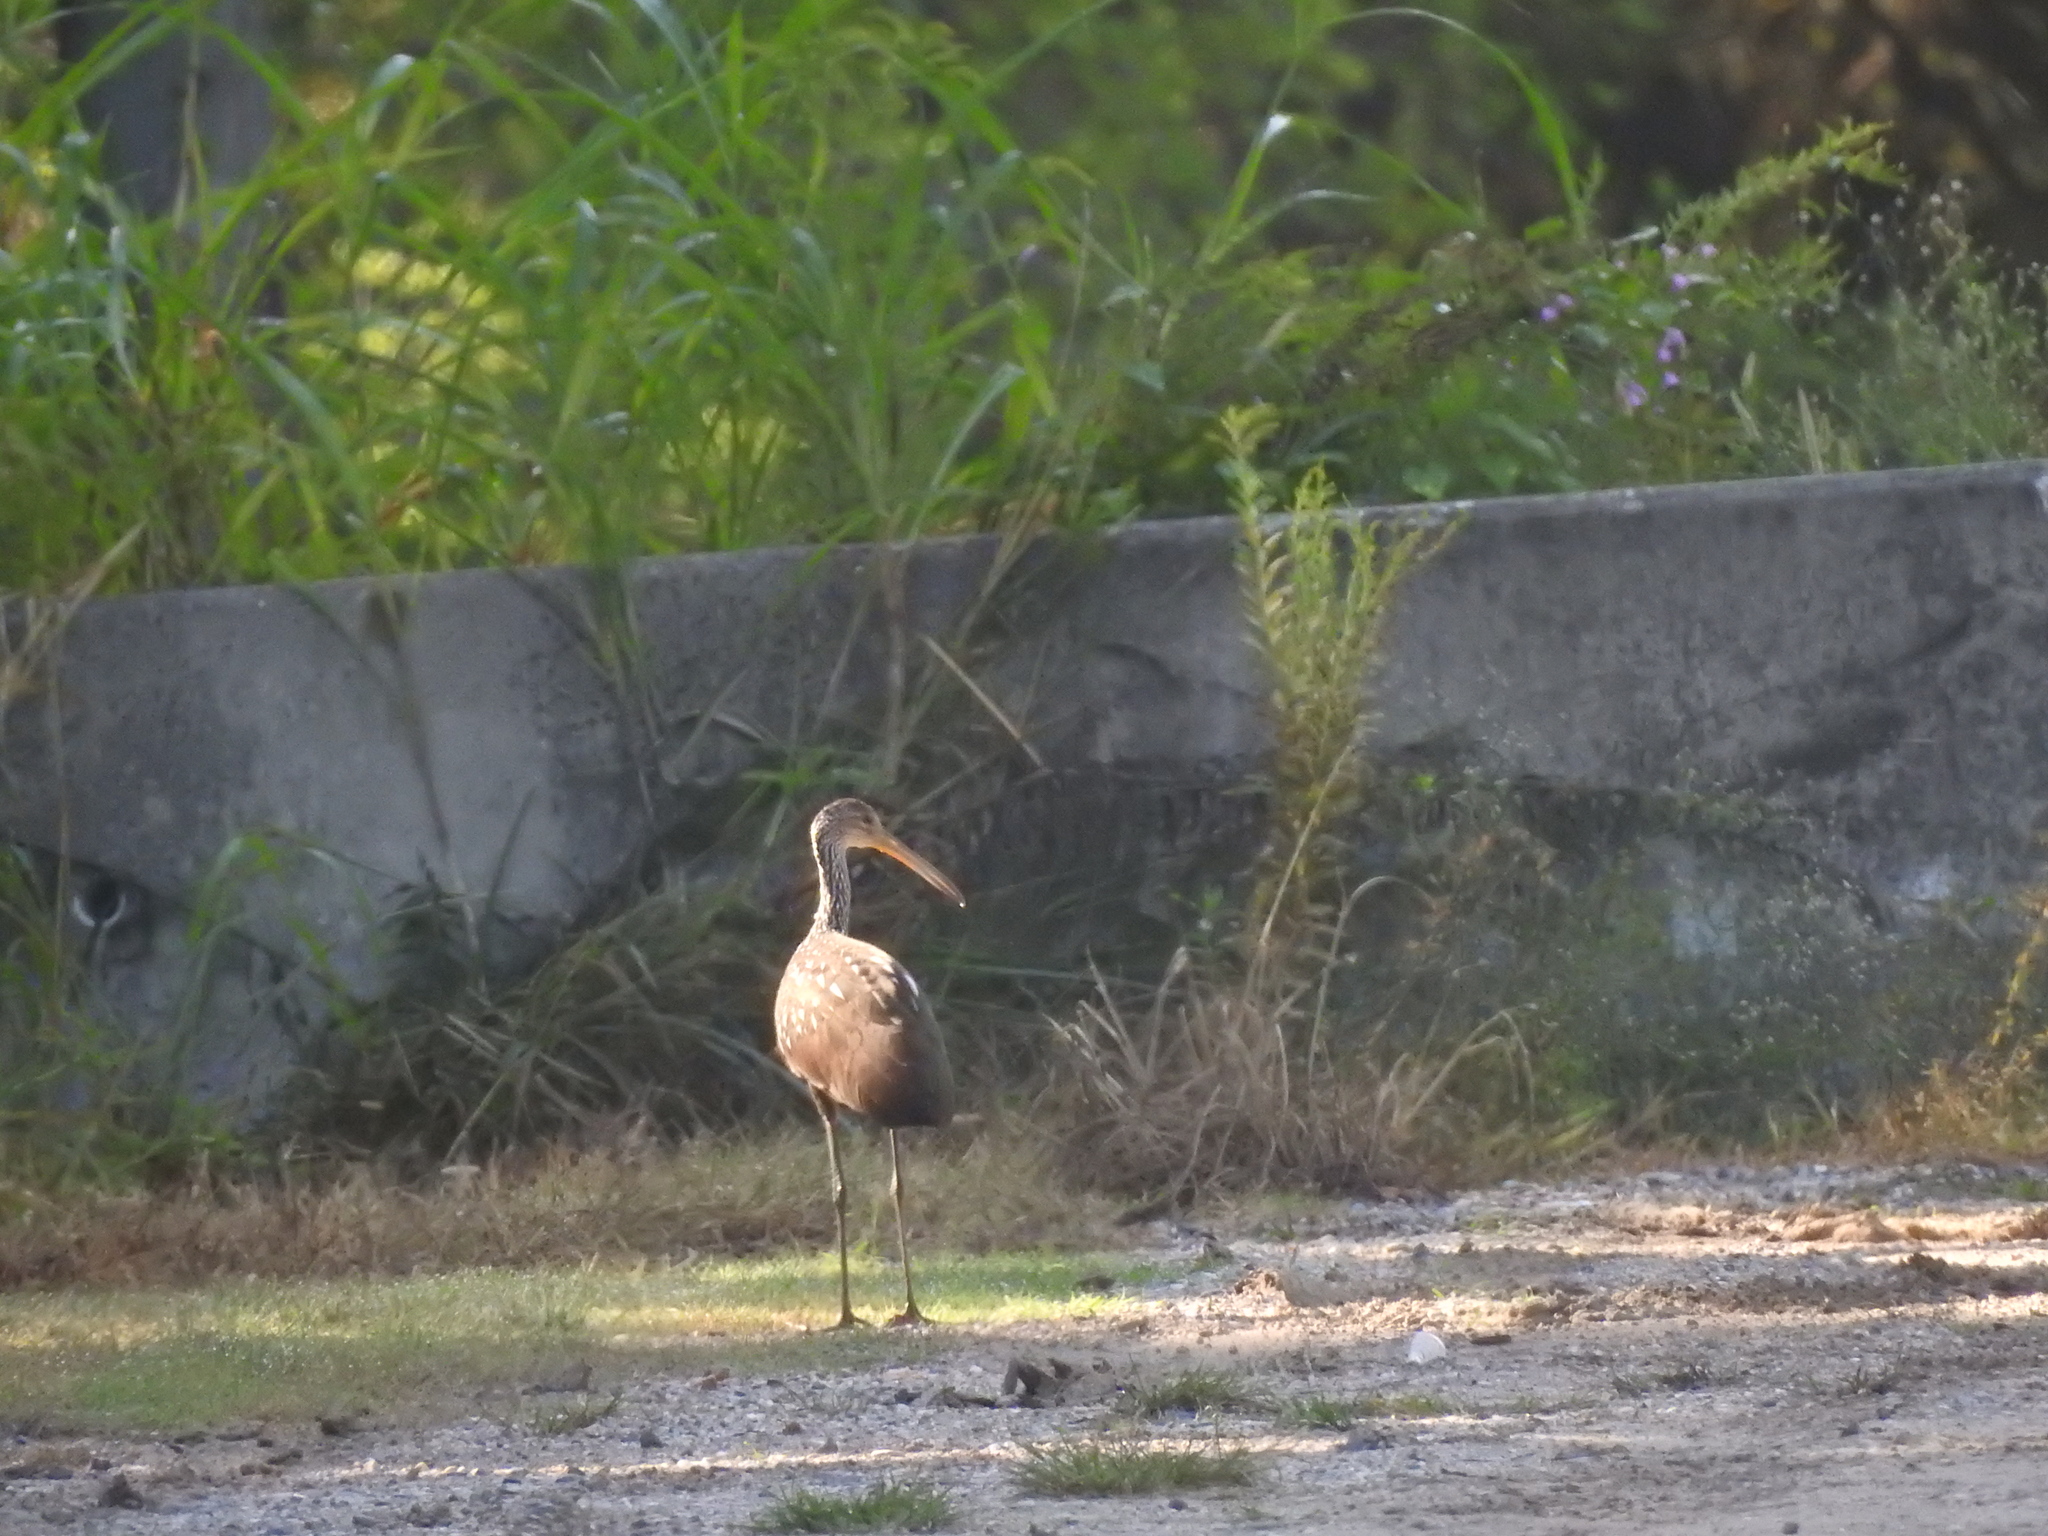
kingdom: Animalia
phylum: Chordata
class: Aves
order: Gruiformes
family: Aramidae
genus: Aramus
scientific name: Aramus guarauna
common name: Limpkin
